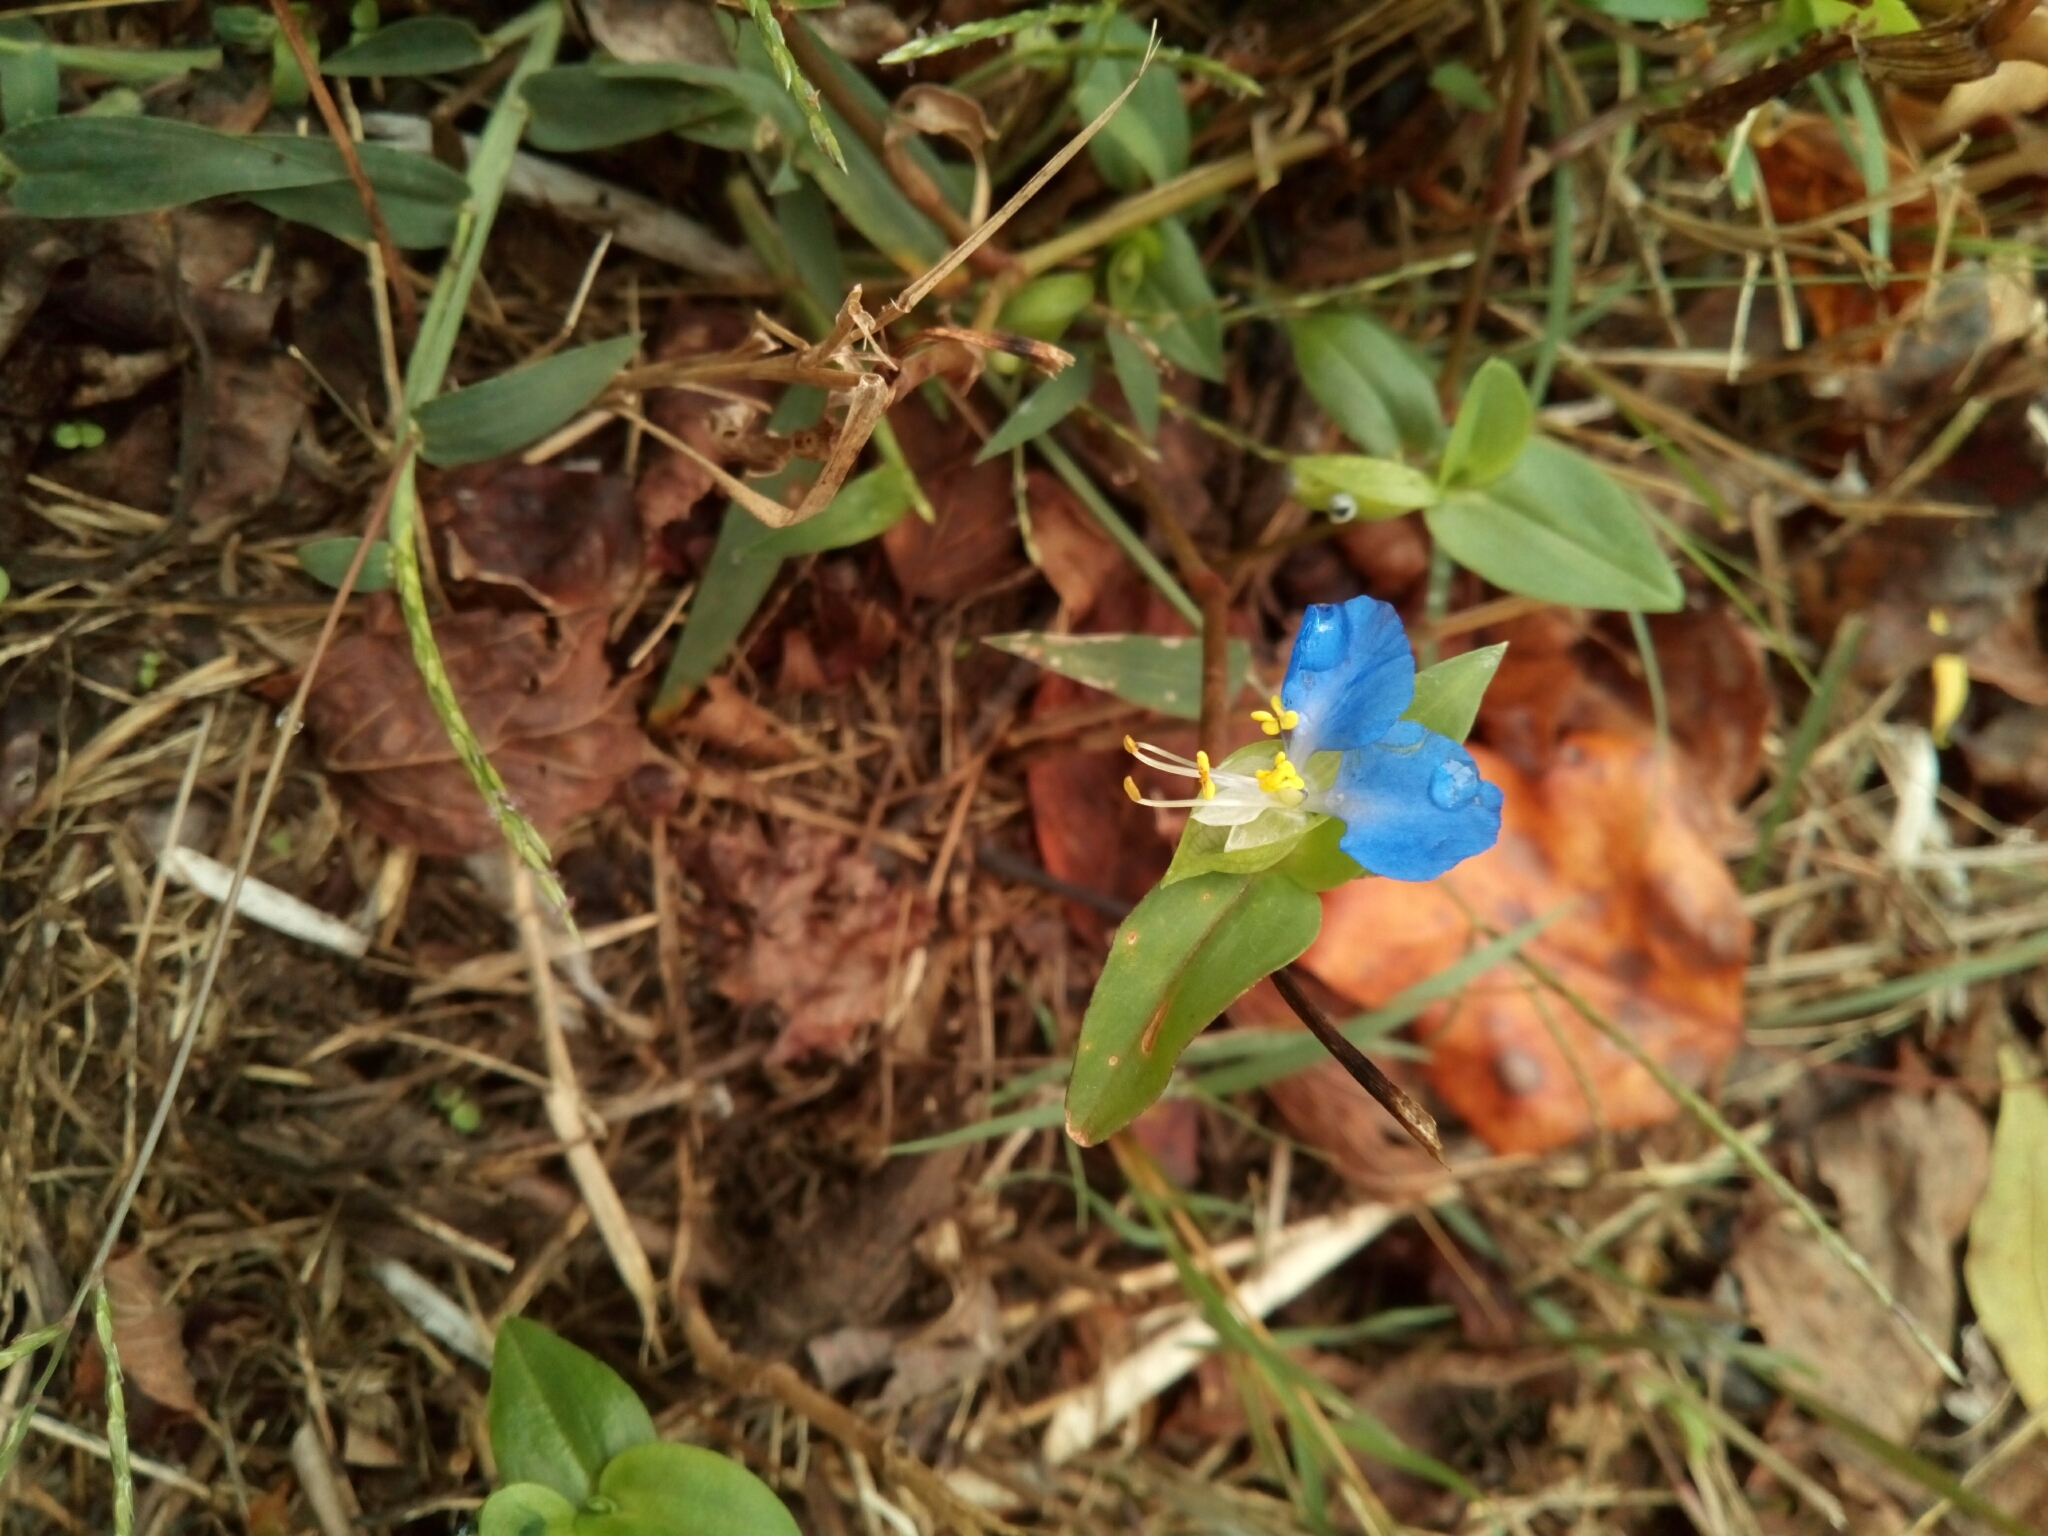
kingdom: Plantae
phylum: Tracheophyta
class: Liliopsida
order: Commelinales
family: Commelinaceae
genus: Commelina
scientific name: Commelina communis
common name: Asiatic dayflower
